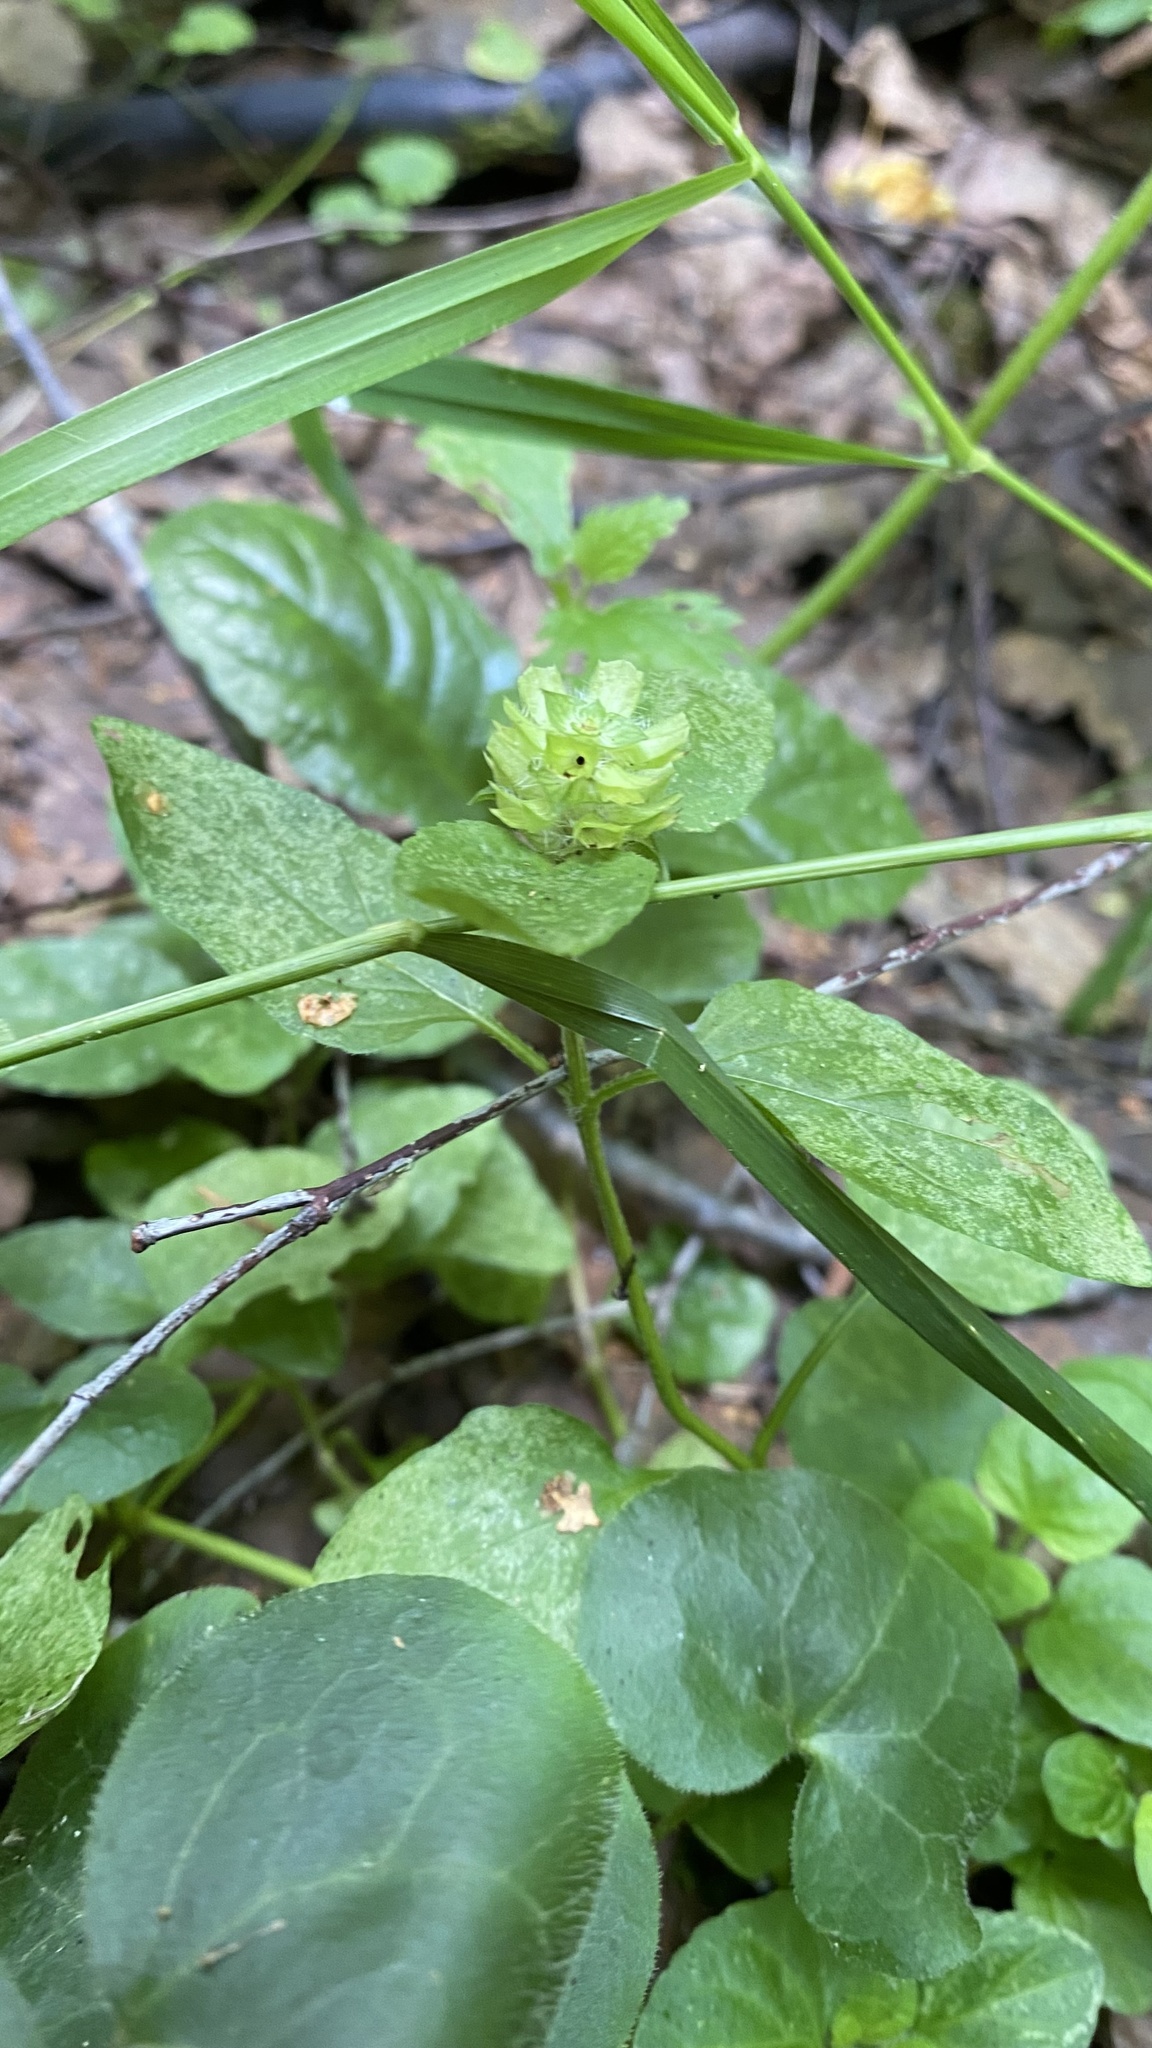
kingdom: Plantae
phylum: Tracheophyta
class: Magnoliopsida
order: Lamiales
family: Lamiaceae
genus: Prunella
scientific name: Prunella vulgaris
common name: Heal-all
